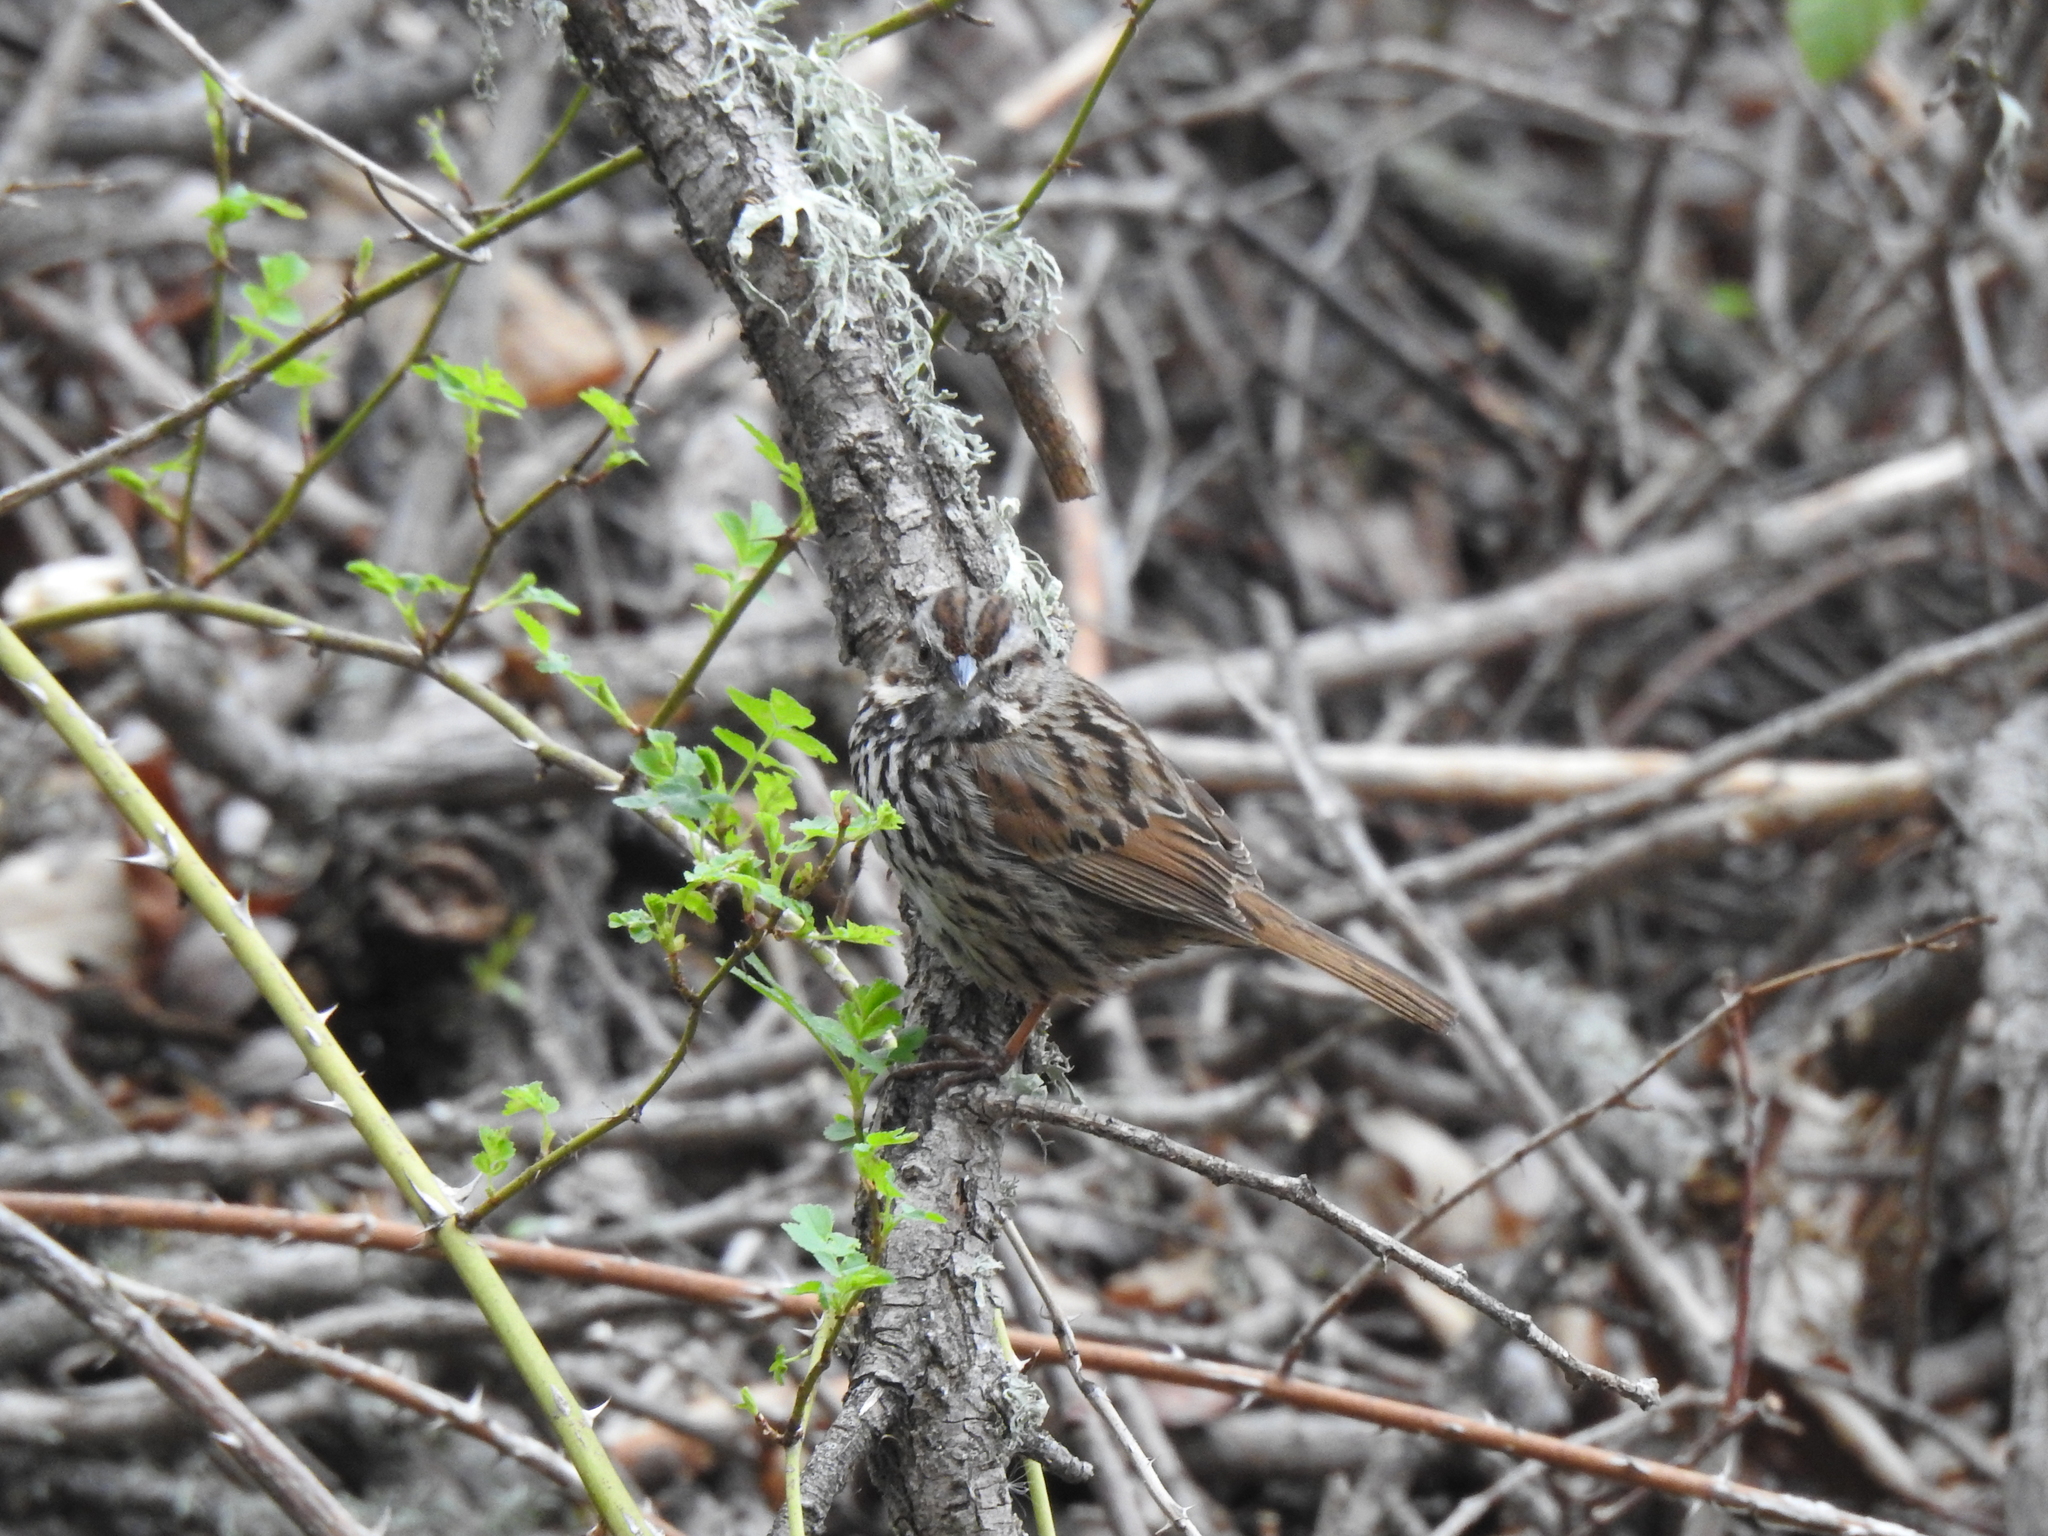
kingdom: Animalia
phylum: Chordata
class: Aves
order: Passeriformes
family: Passerellidae
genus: Melospiza
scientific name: Melospiza melodia
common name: Song sparrow
